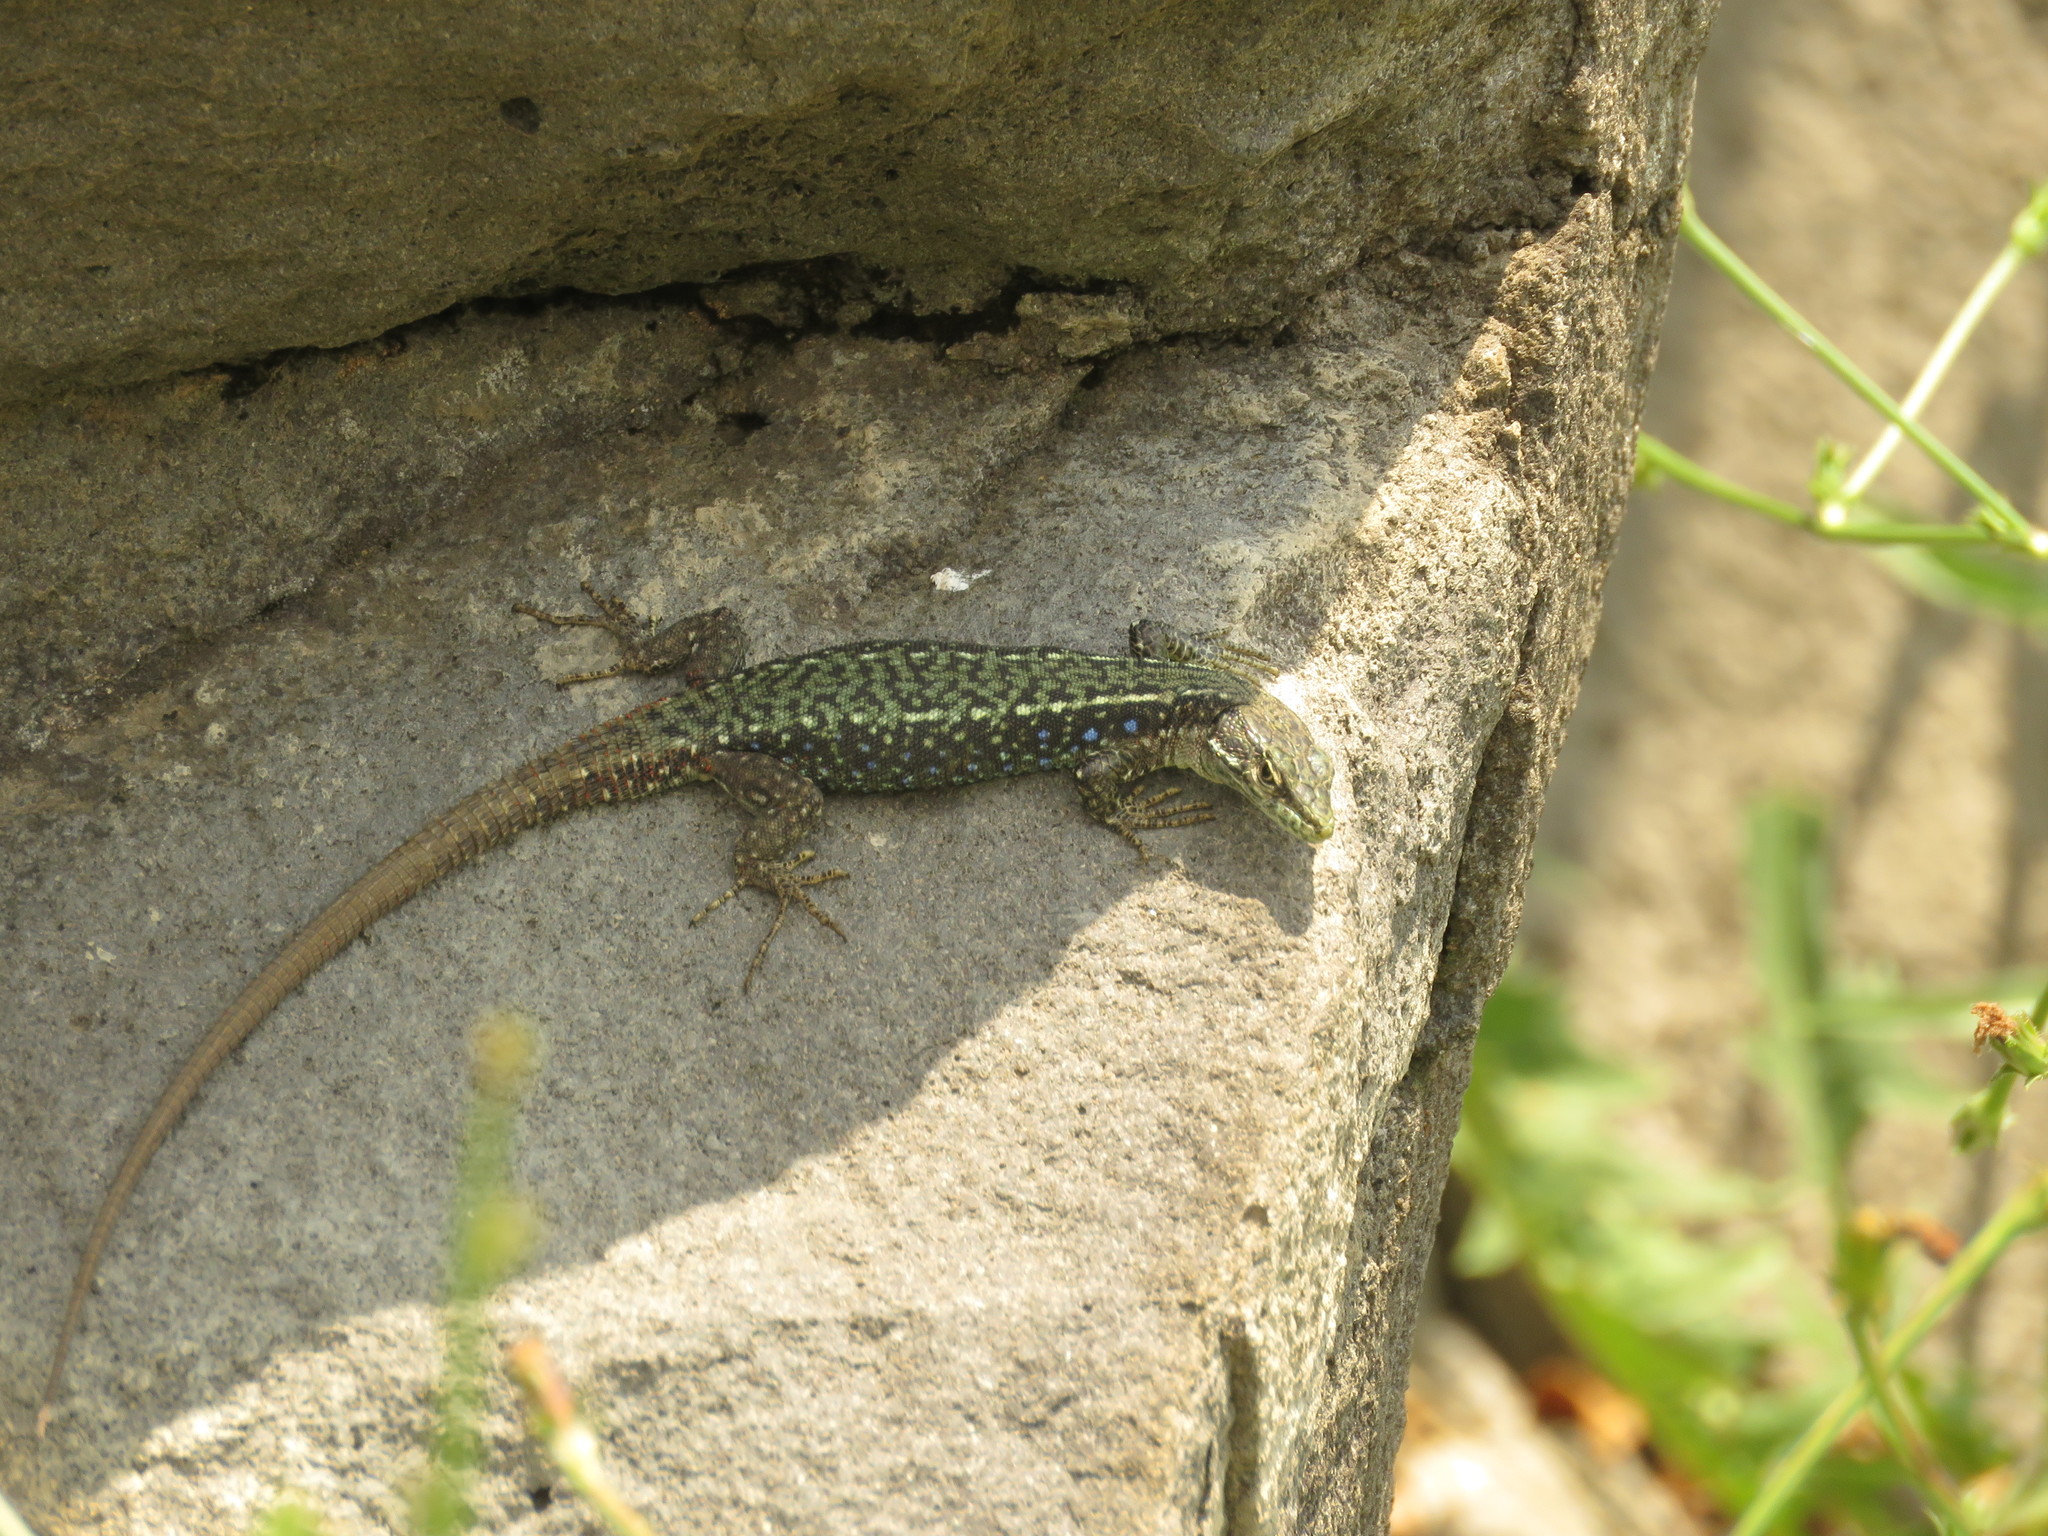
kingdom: Animalia
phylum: Chordata
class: Squamata
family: Lacertidae
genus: Darevskia
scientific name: Darevskia portschinskii
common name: River kura lizard
